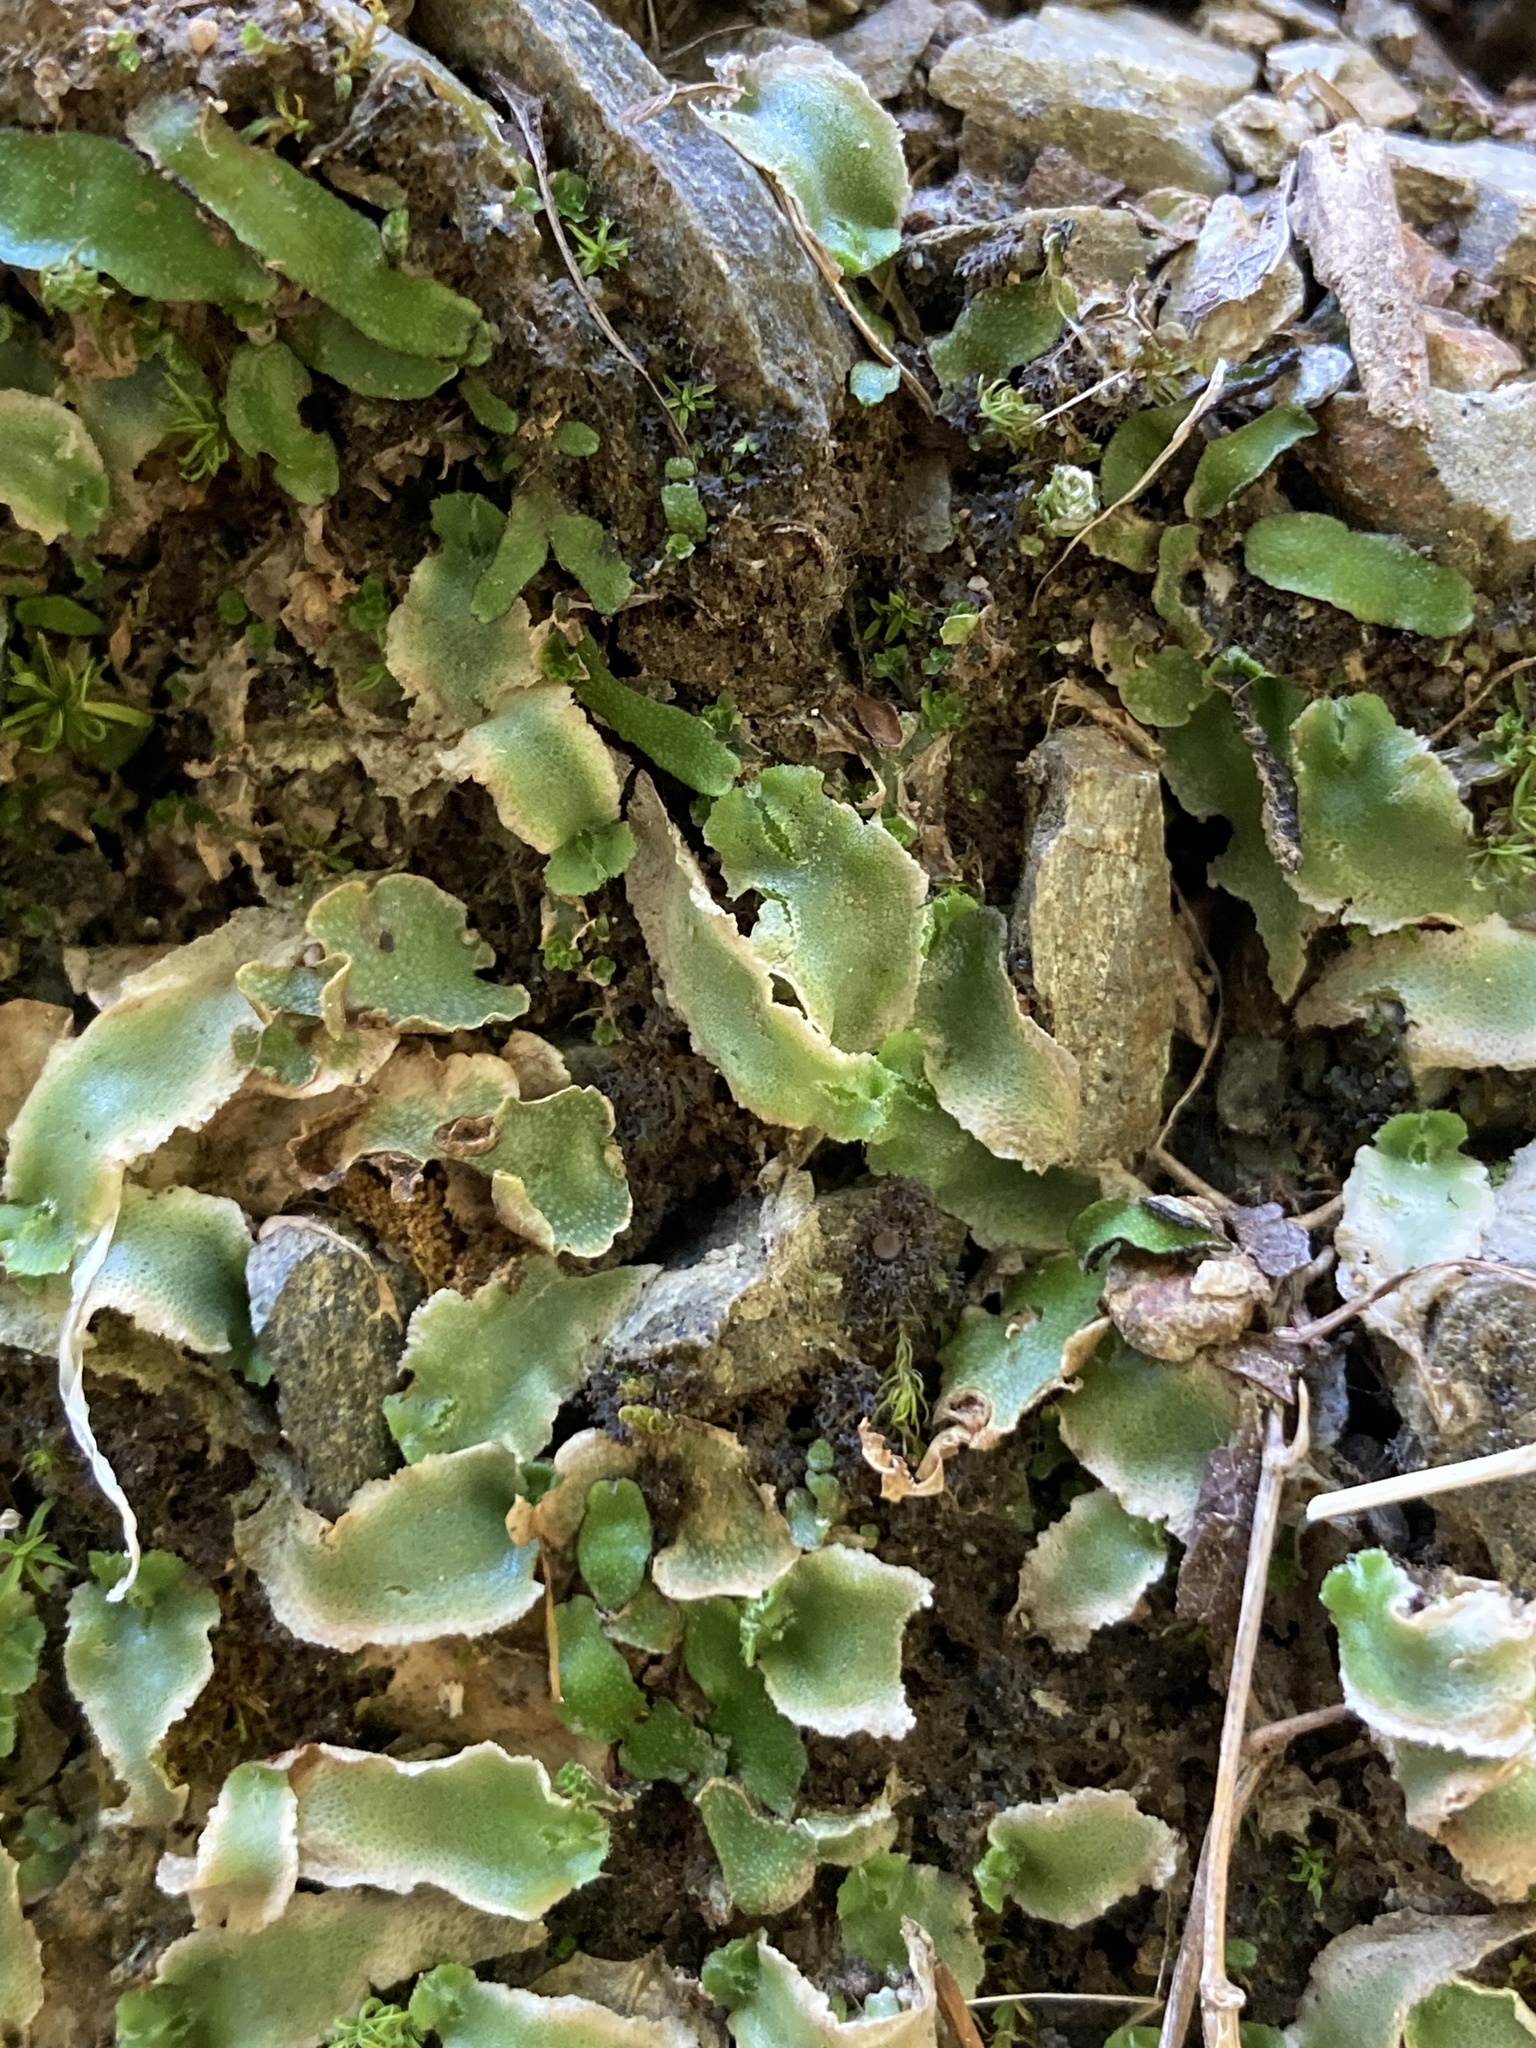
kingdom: Plantae
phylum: Marchantiophyta
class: Marchantiopsida
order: Marchantiales
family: Corsiniaceae
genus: Corsinia
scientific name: Corsinia coriandrina
